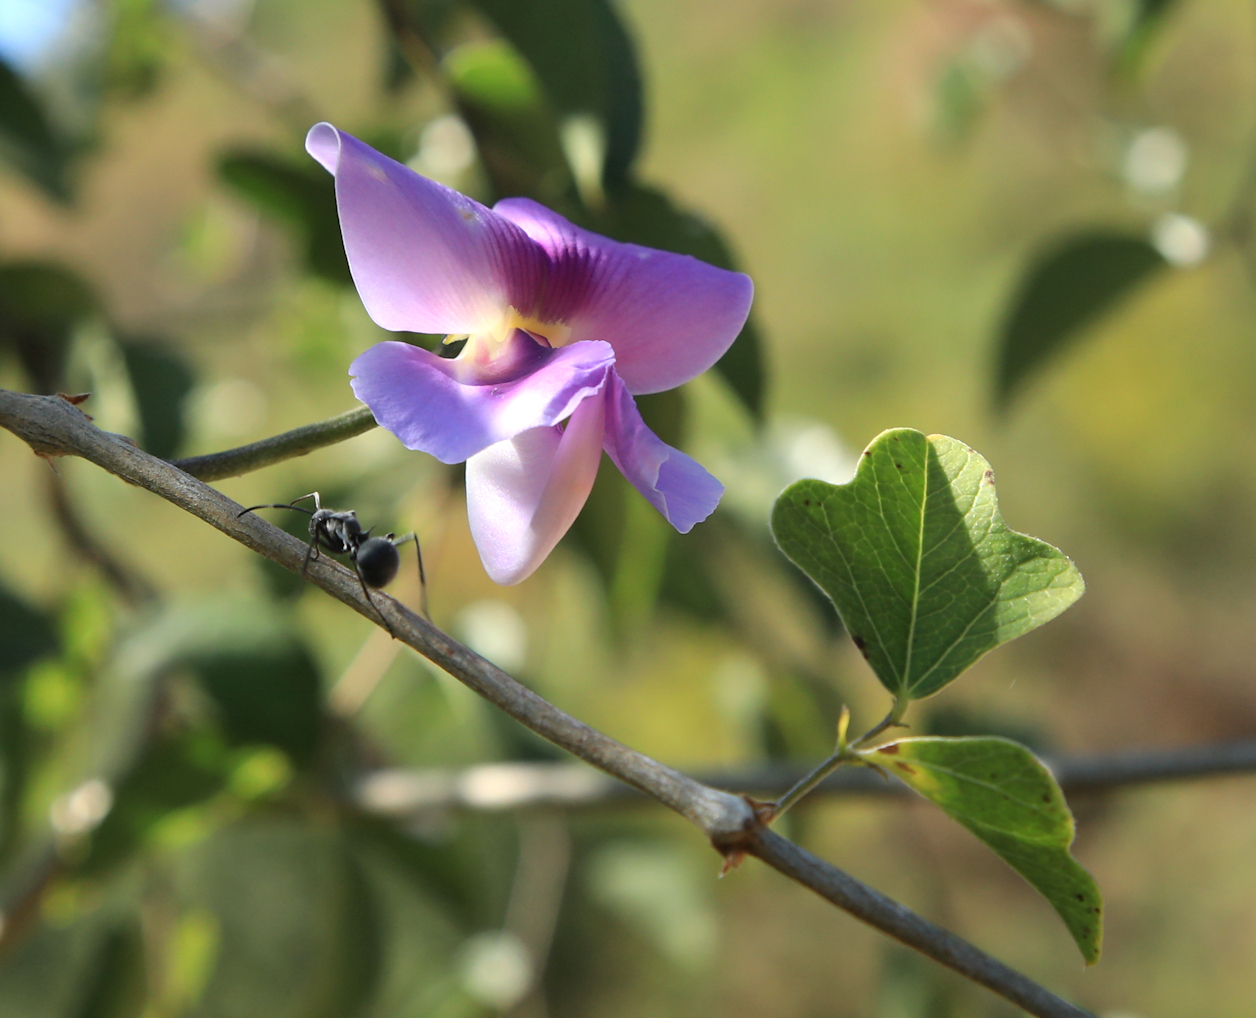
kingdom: Plantae
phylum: Tracheophyta
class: Magnoliopsida
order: Fabales
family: Fabaceae
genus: Dolichos
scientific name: Dolichos trilobus
